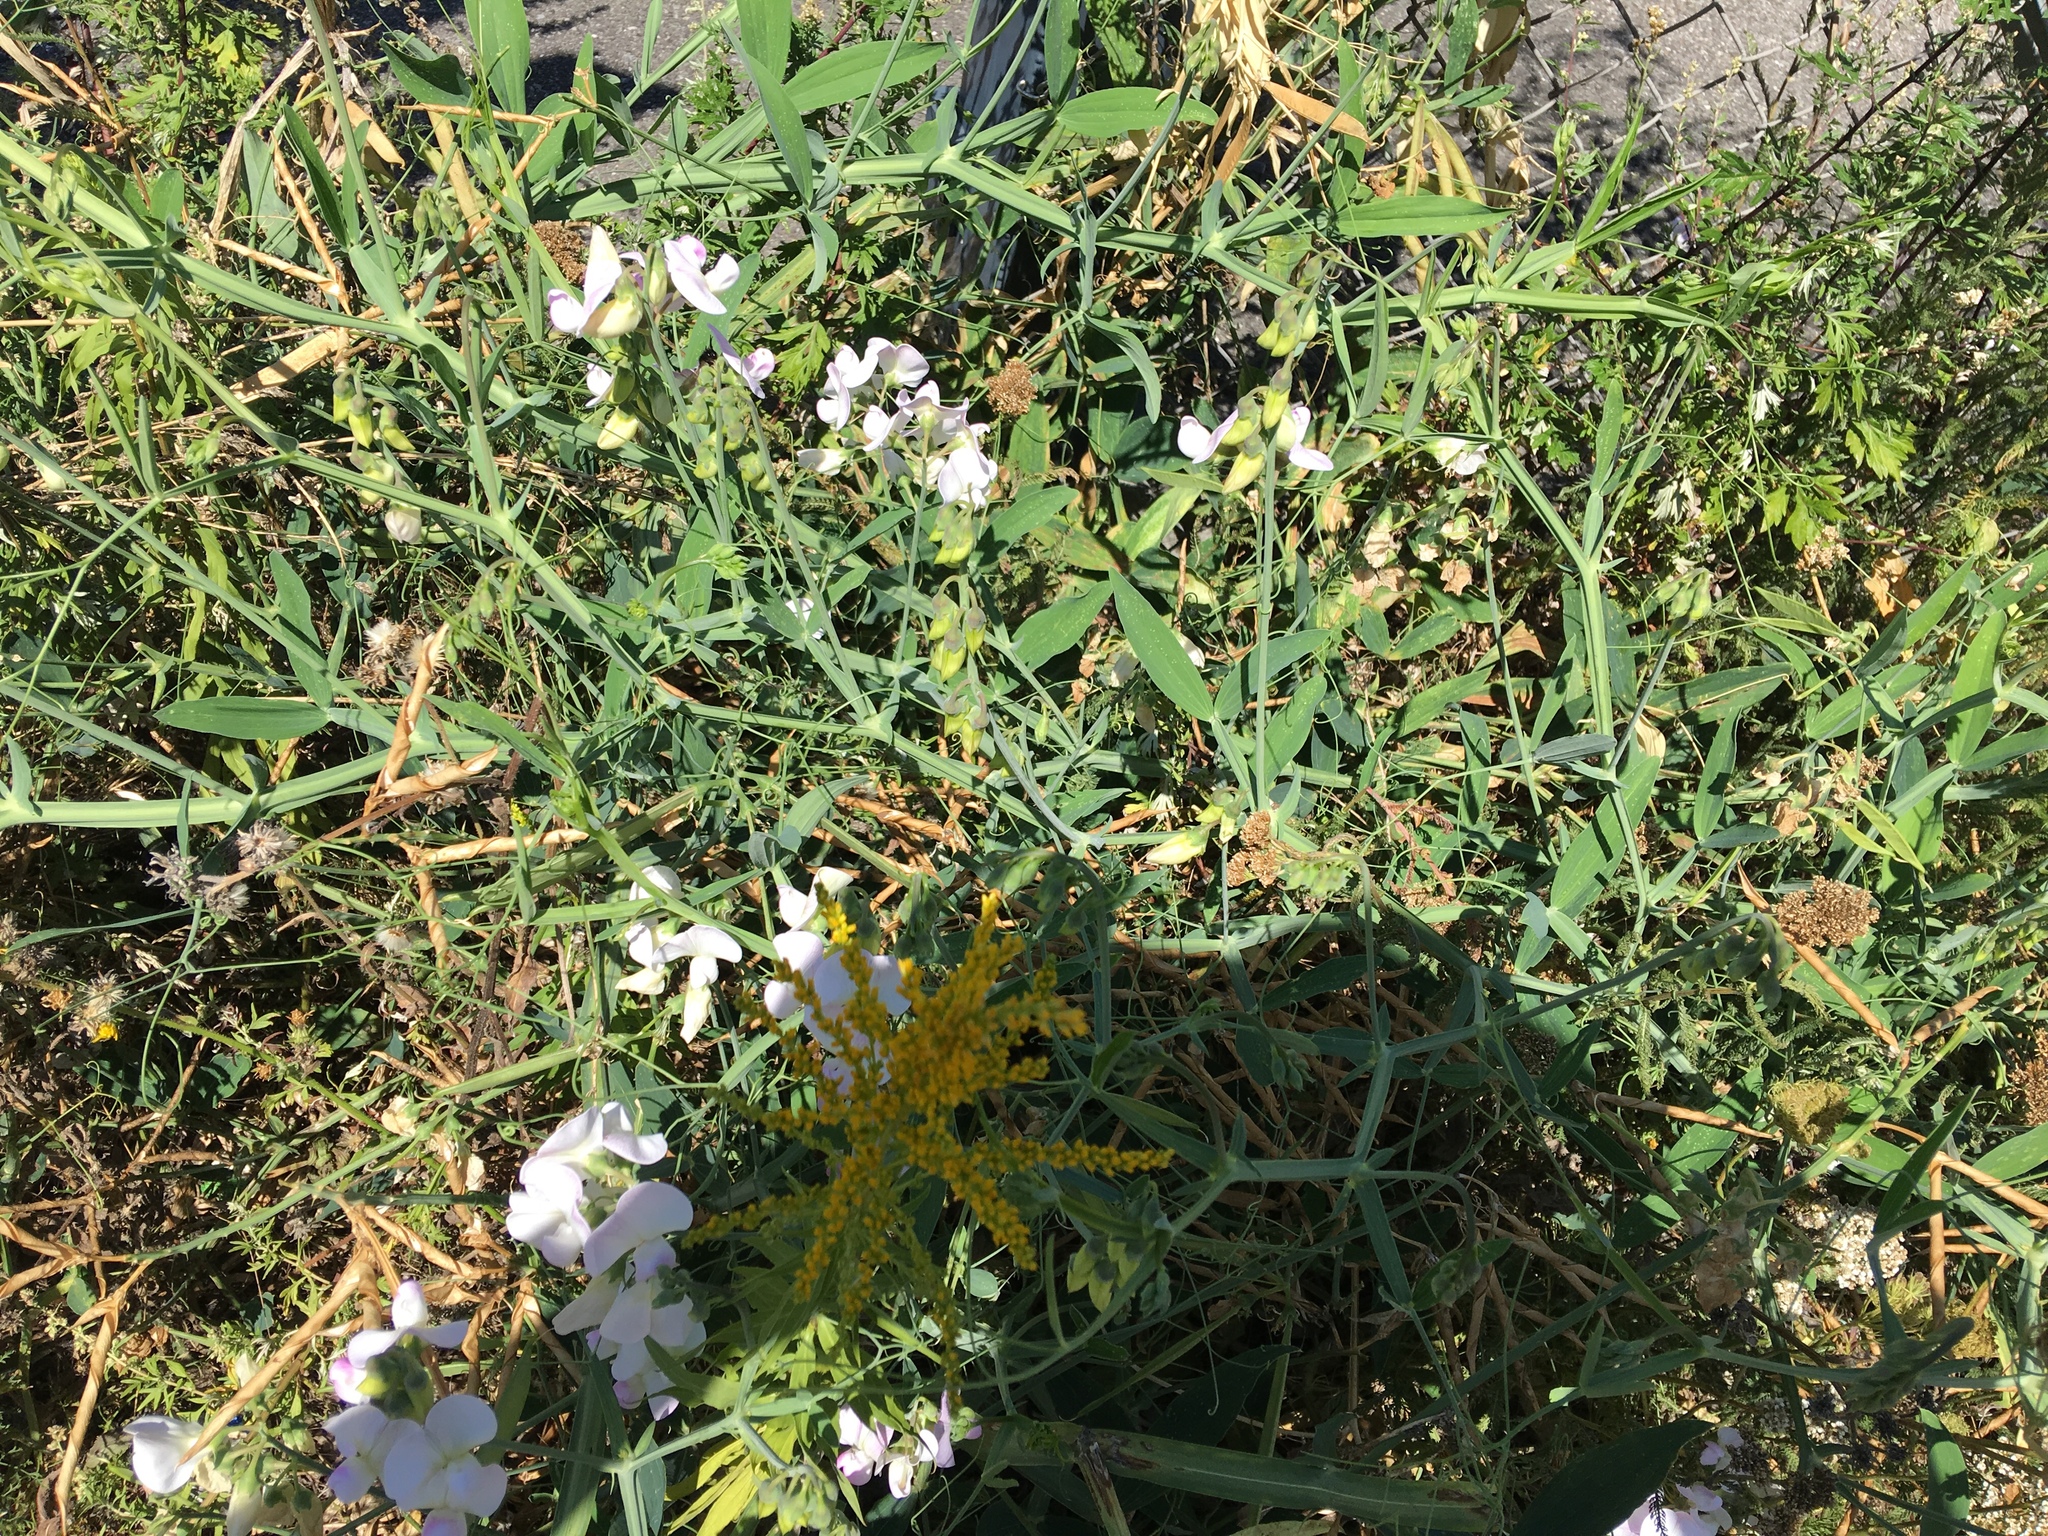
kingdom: Plantae
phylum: Tracheophyta
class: Magnoliopsida
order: Fabales
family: Fabaceae
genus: Lathyrus
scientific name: Lathyrus latifolius
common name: Perennial pea
